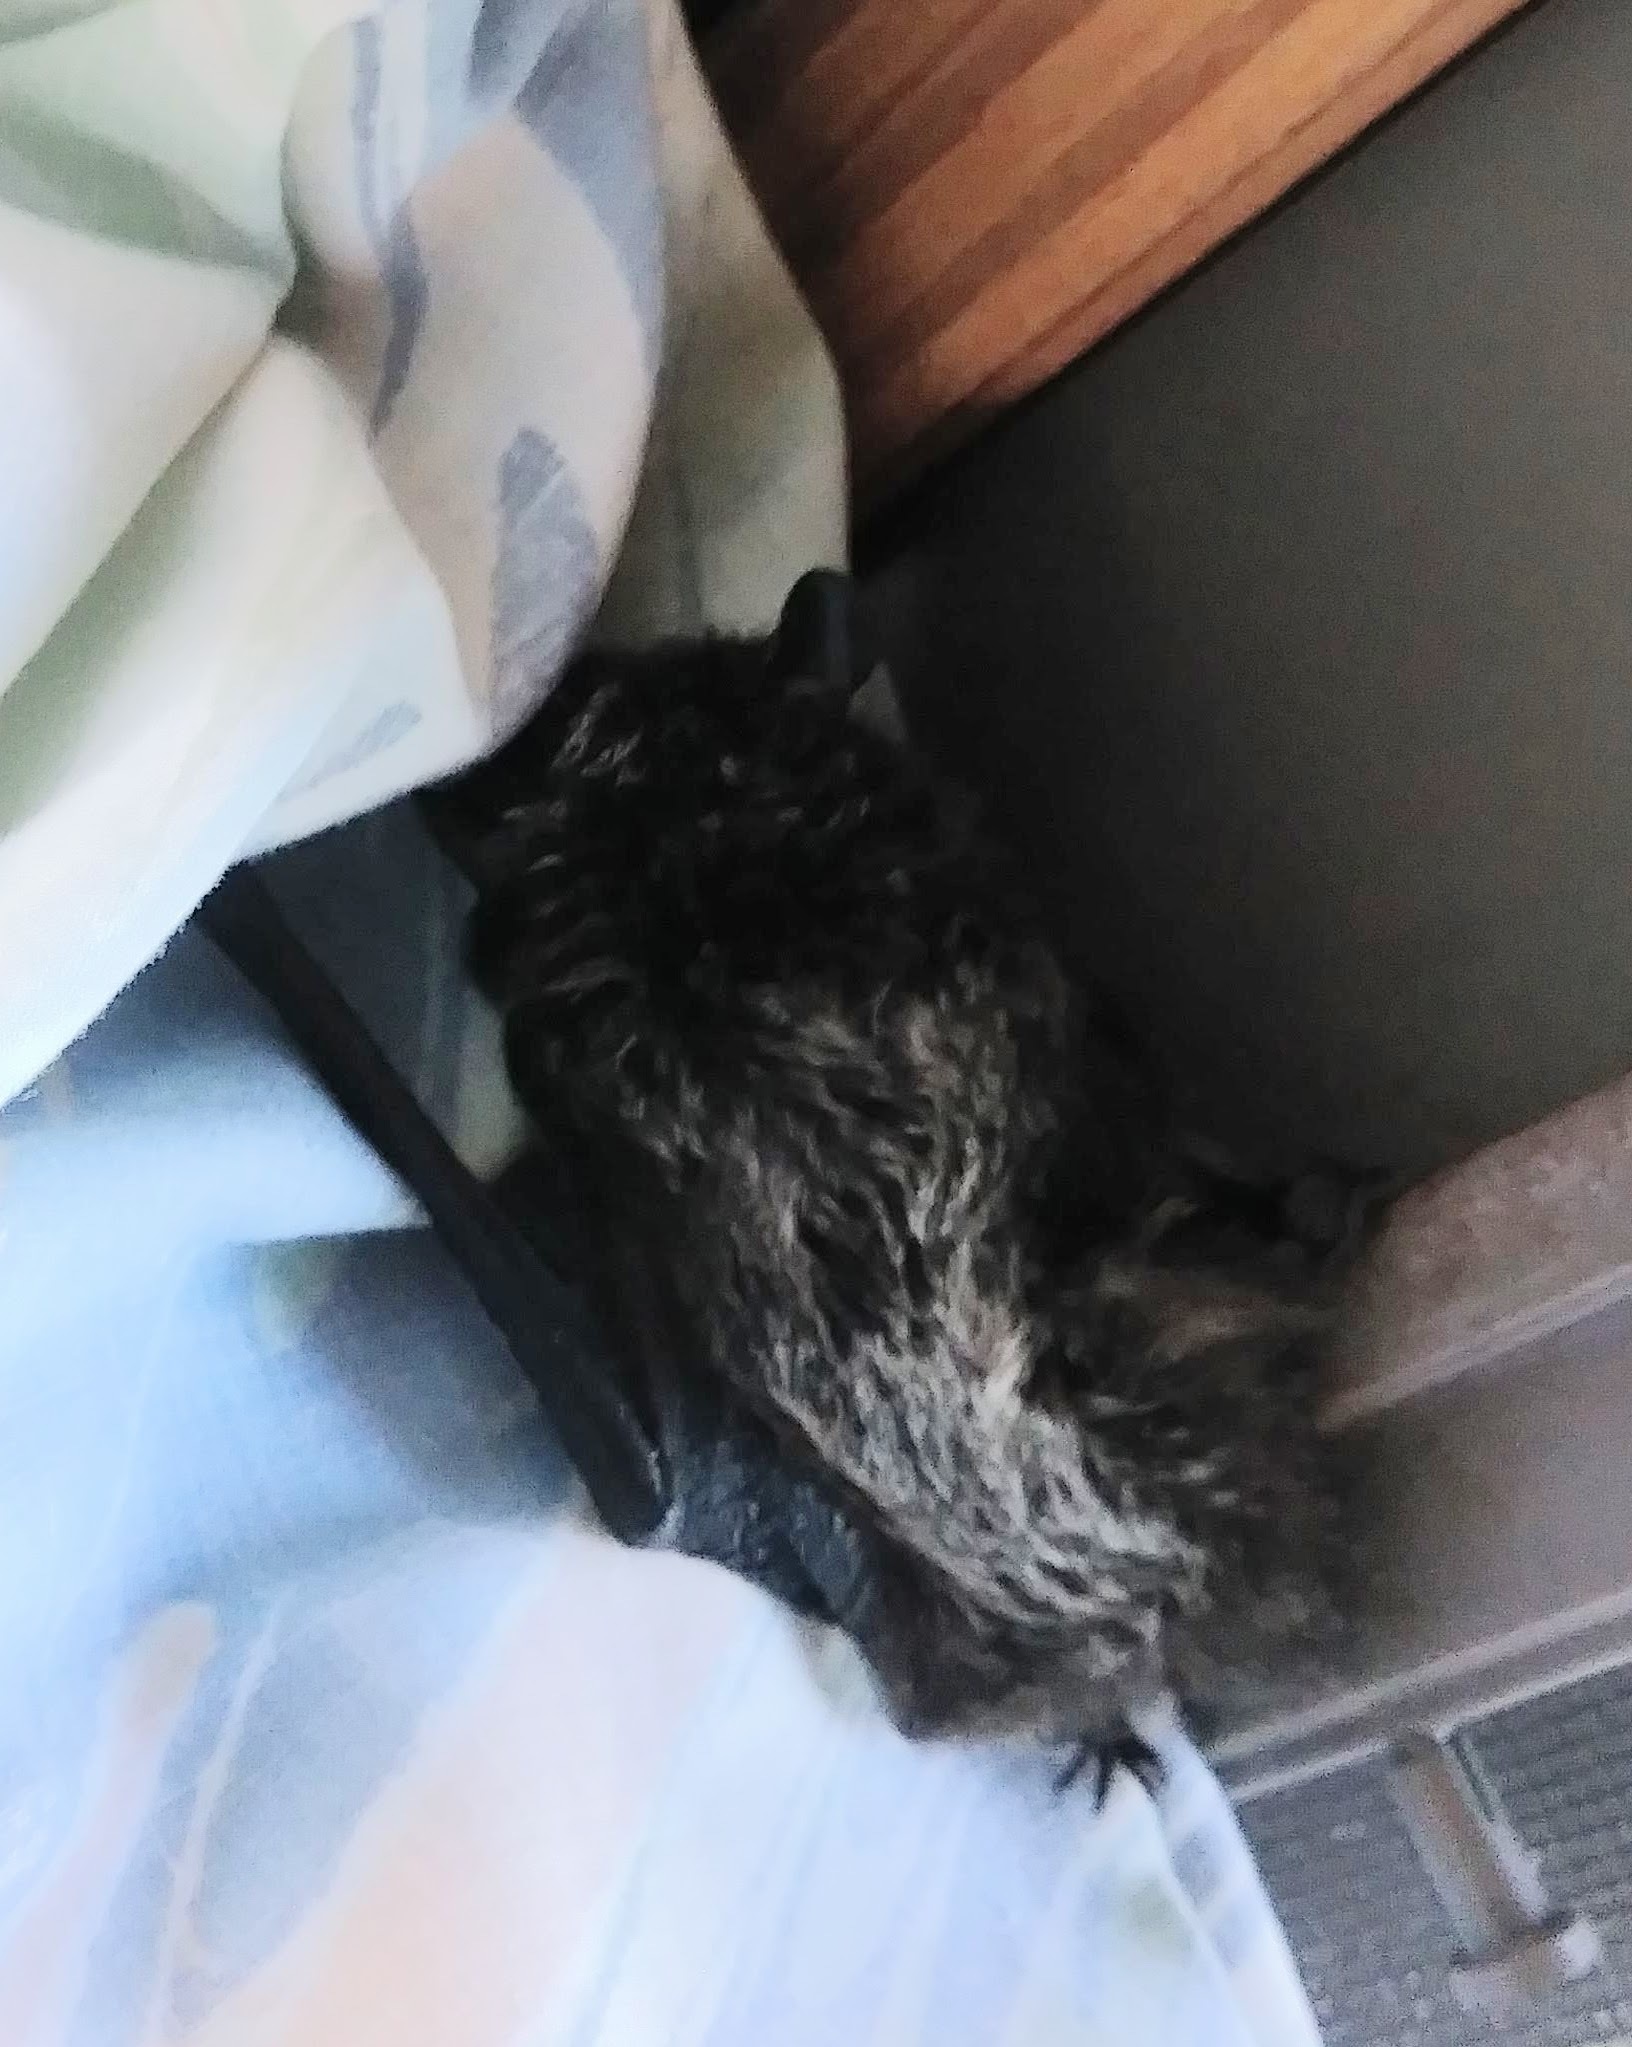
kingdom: Animalia
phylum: Chordata
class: Mammalia
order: Chiroptera
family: Vespertilionidae
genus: Lasionycteris
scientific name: Lasionycteris noctivagans
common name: Silver-haired bat
